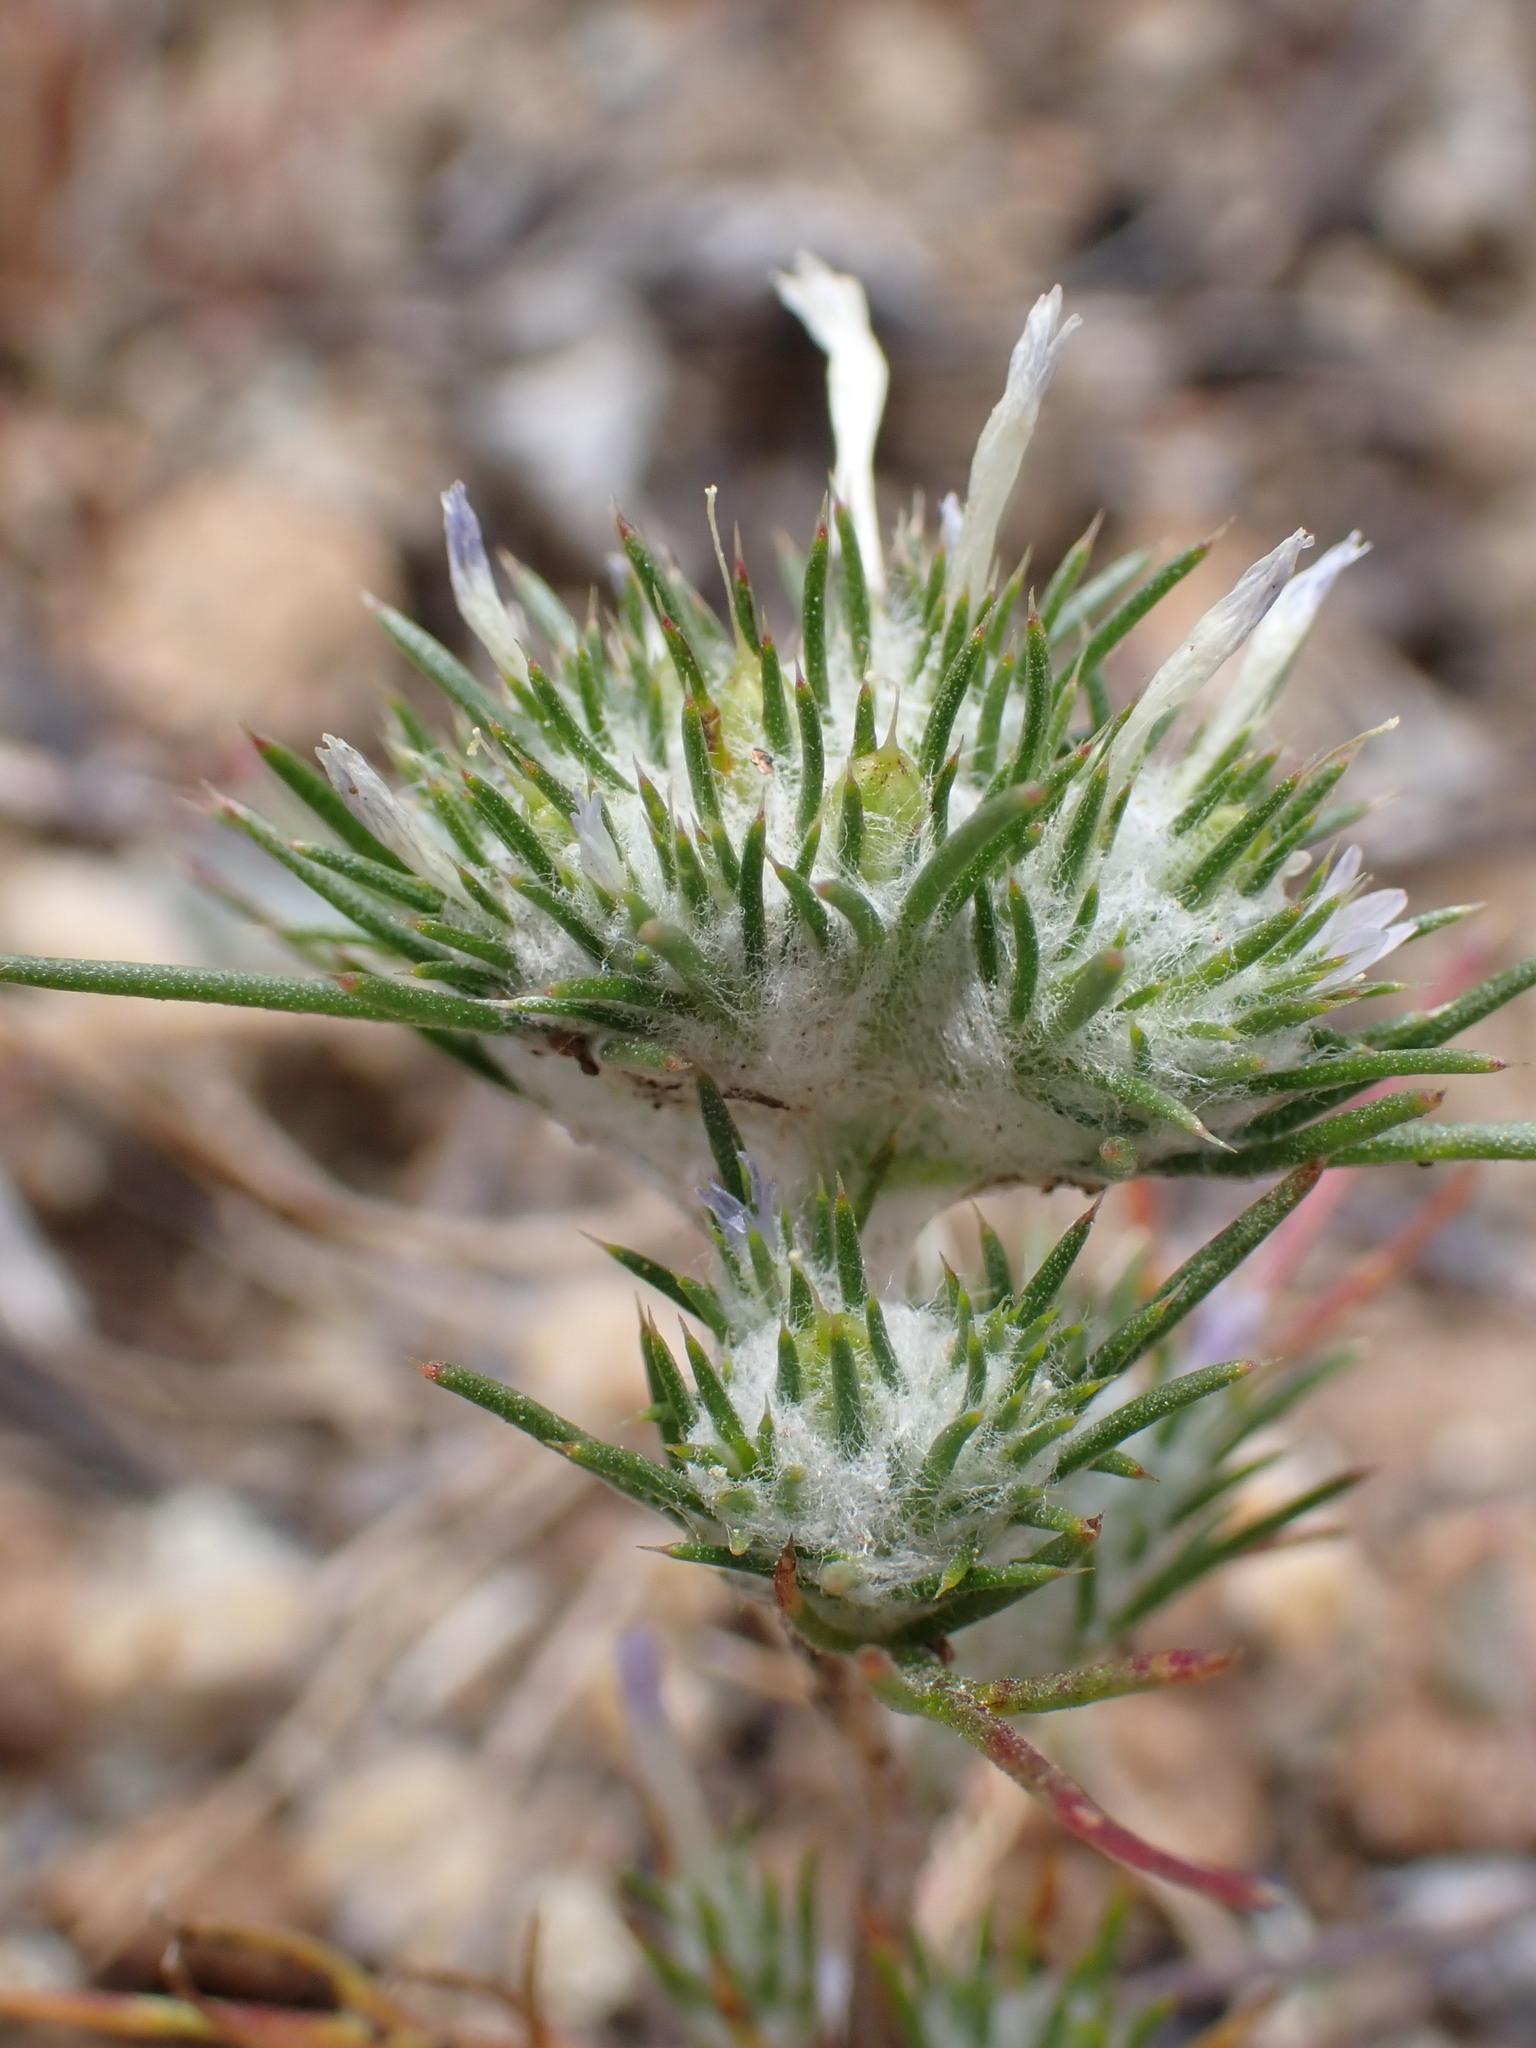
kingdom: Plantae
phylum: Tracheophyta
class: Magnoliopsida
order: Ericales
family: Polemoniaceae
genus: Eriastrum
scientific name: Eriastrum abramsii
